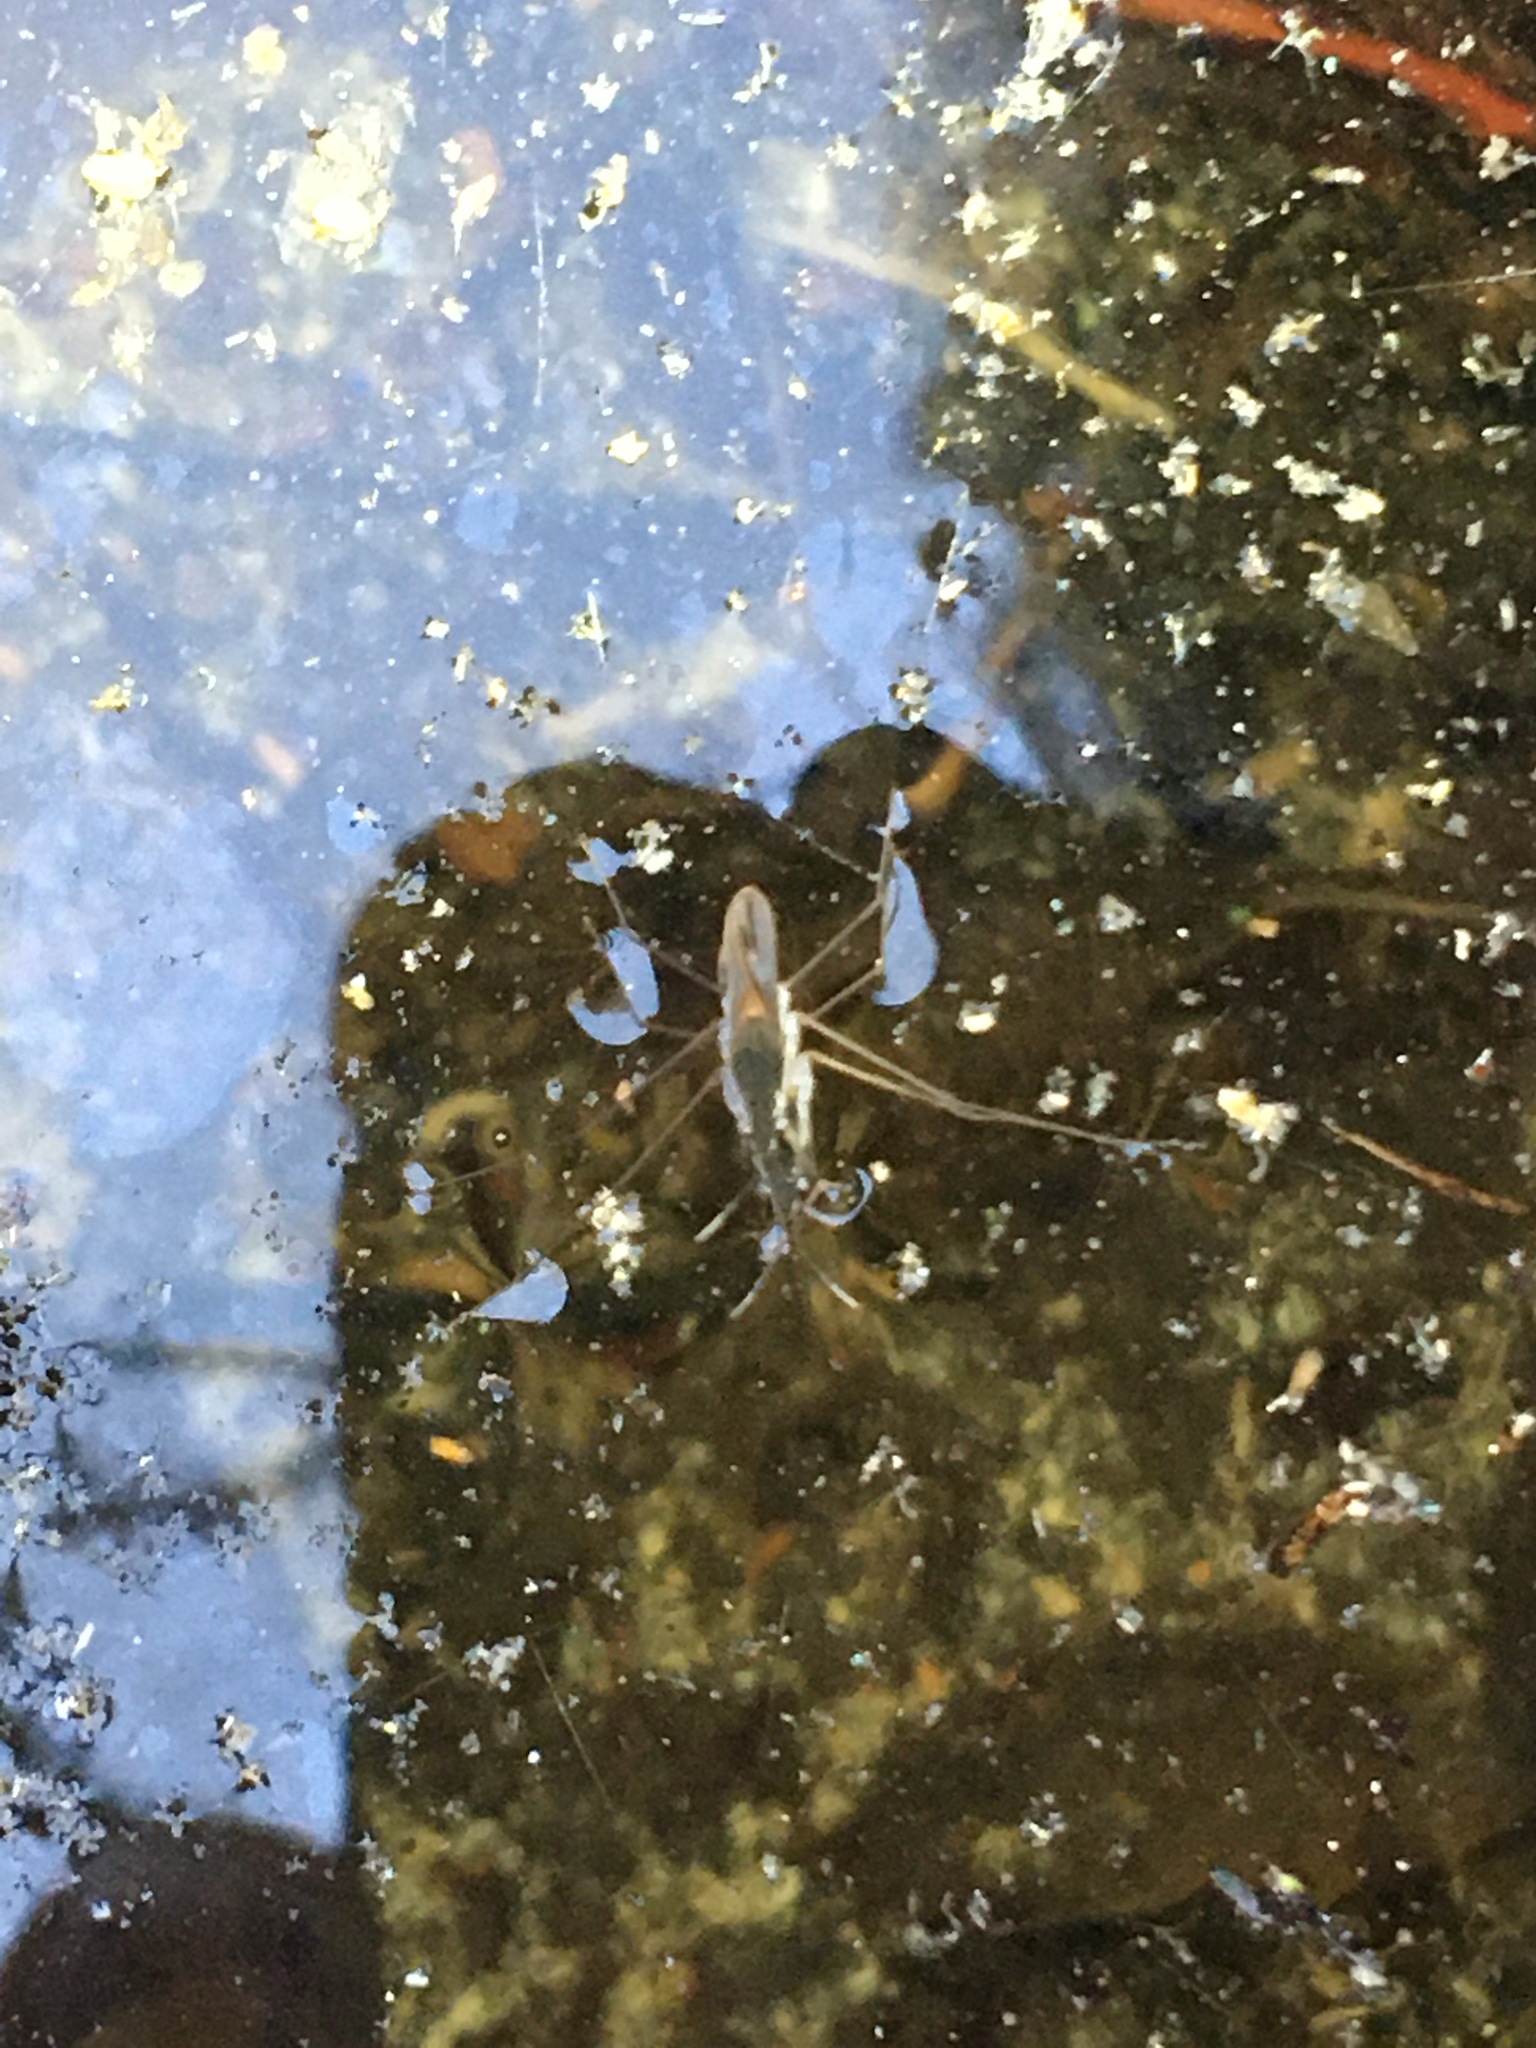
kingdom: Animalia
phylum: Arthropoda
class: Insecta
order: Hemiptera
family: Gerridae
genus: Gerris
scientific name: Gerris
